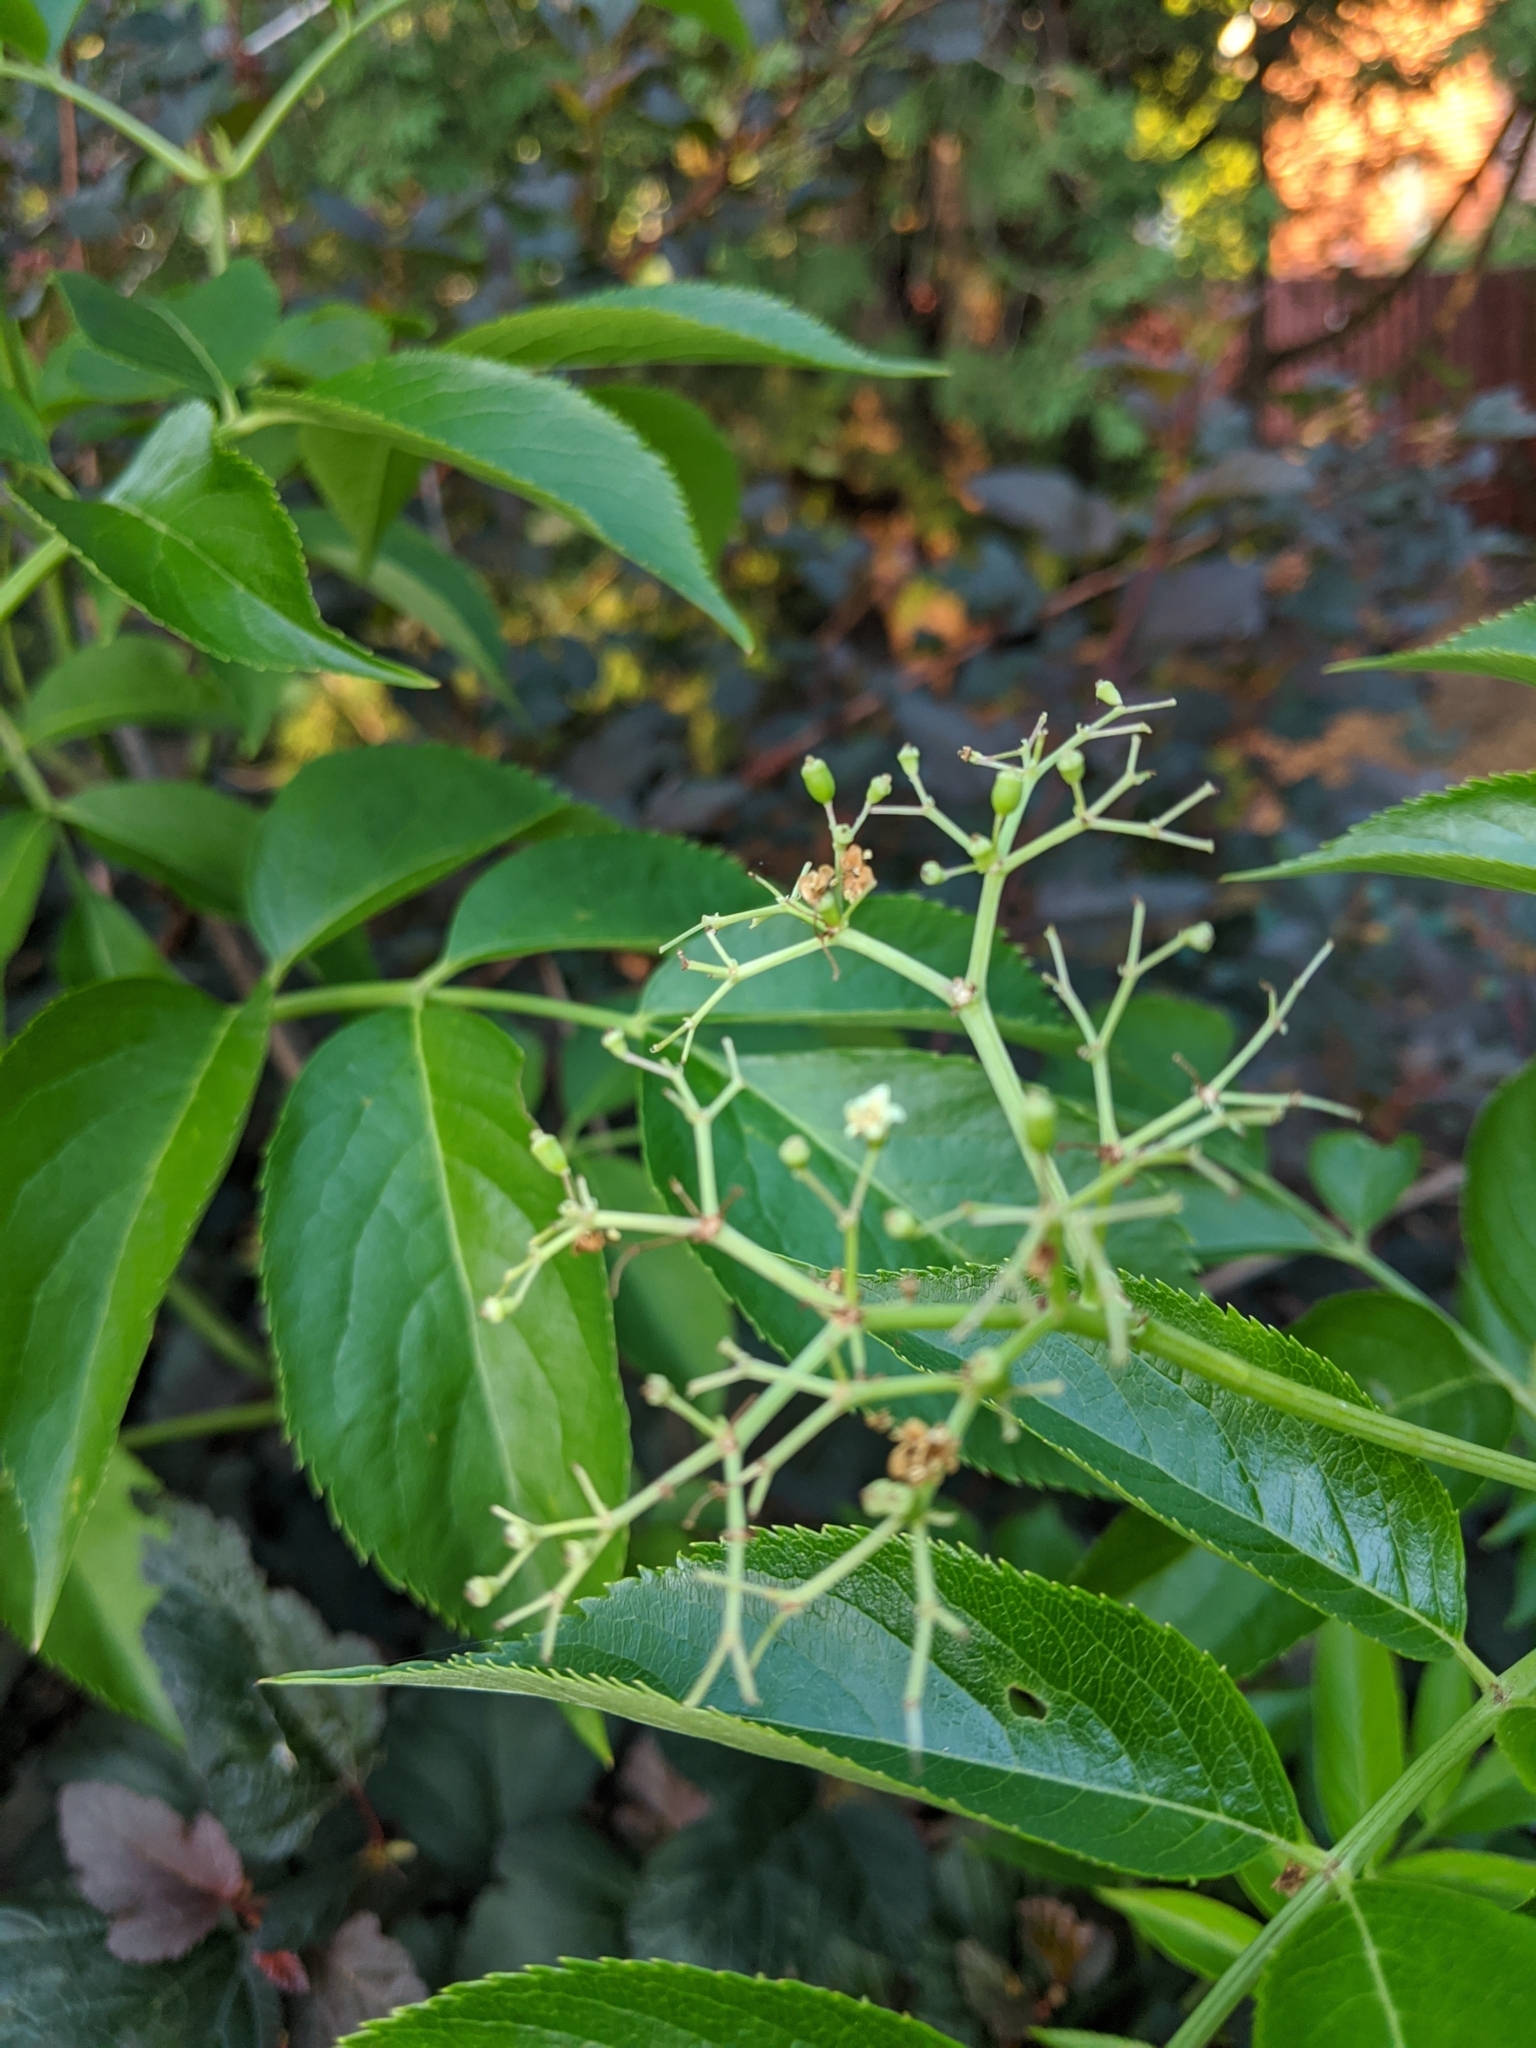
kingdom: Plantae
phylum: Tracheophyta
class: Magnoliopsida
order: Dipsacales
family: Viburnaceae
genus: Sambucus
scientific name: Sambucus canadensis
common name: American elder
